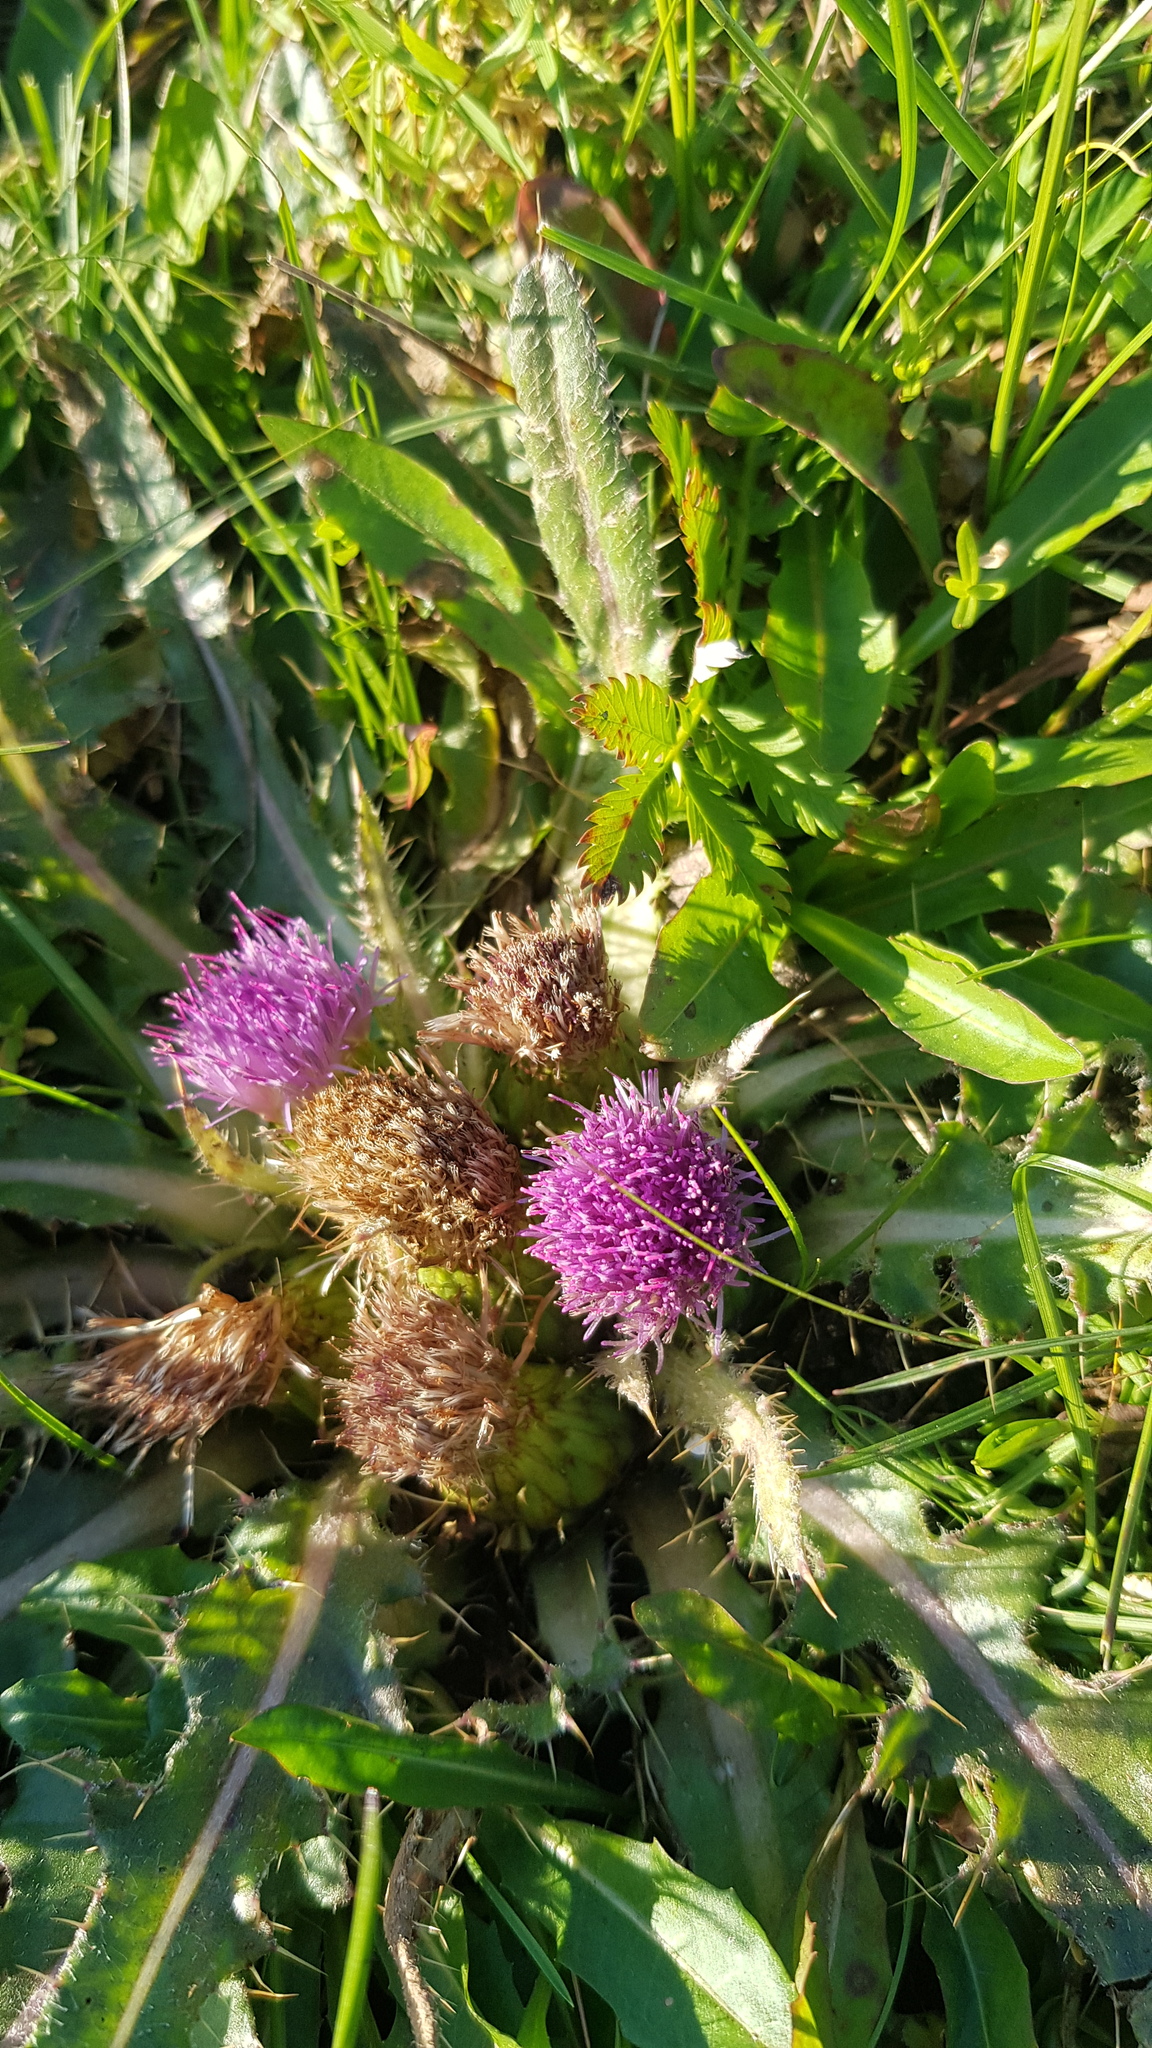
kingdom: Plantae
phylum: Tracheophyta
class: Magnoliopsida
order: Asterales
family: Asteraceae
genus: Cirsium
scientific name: Cirsium esculentum
